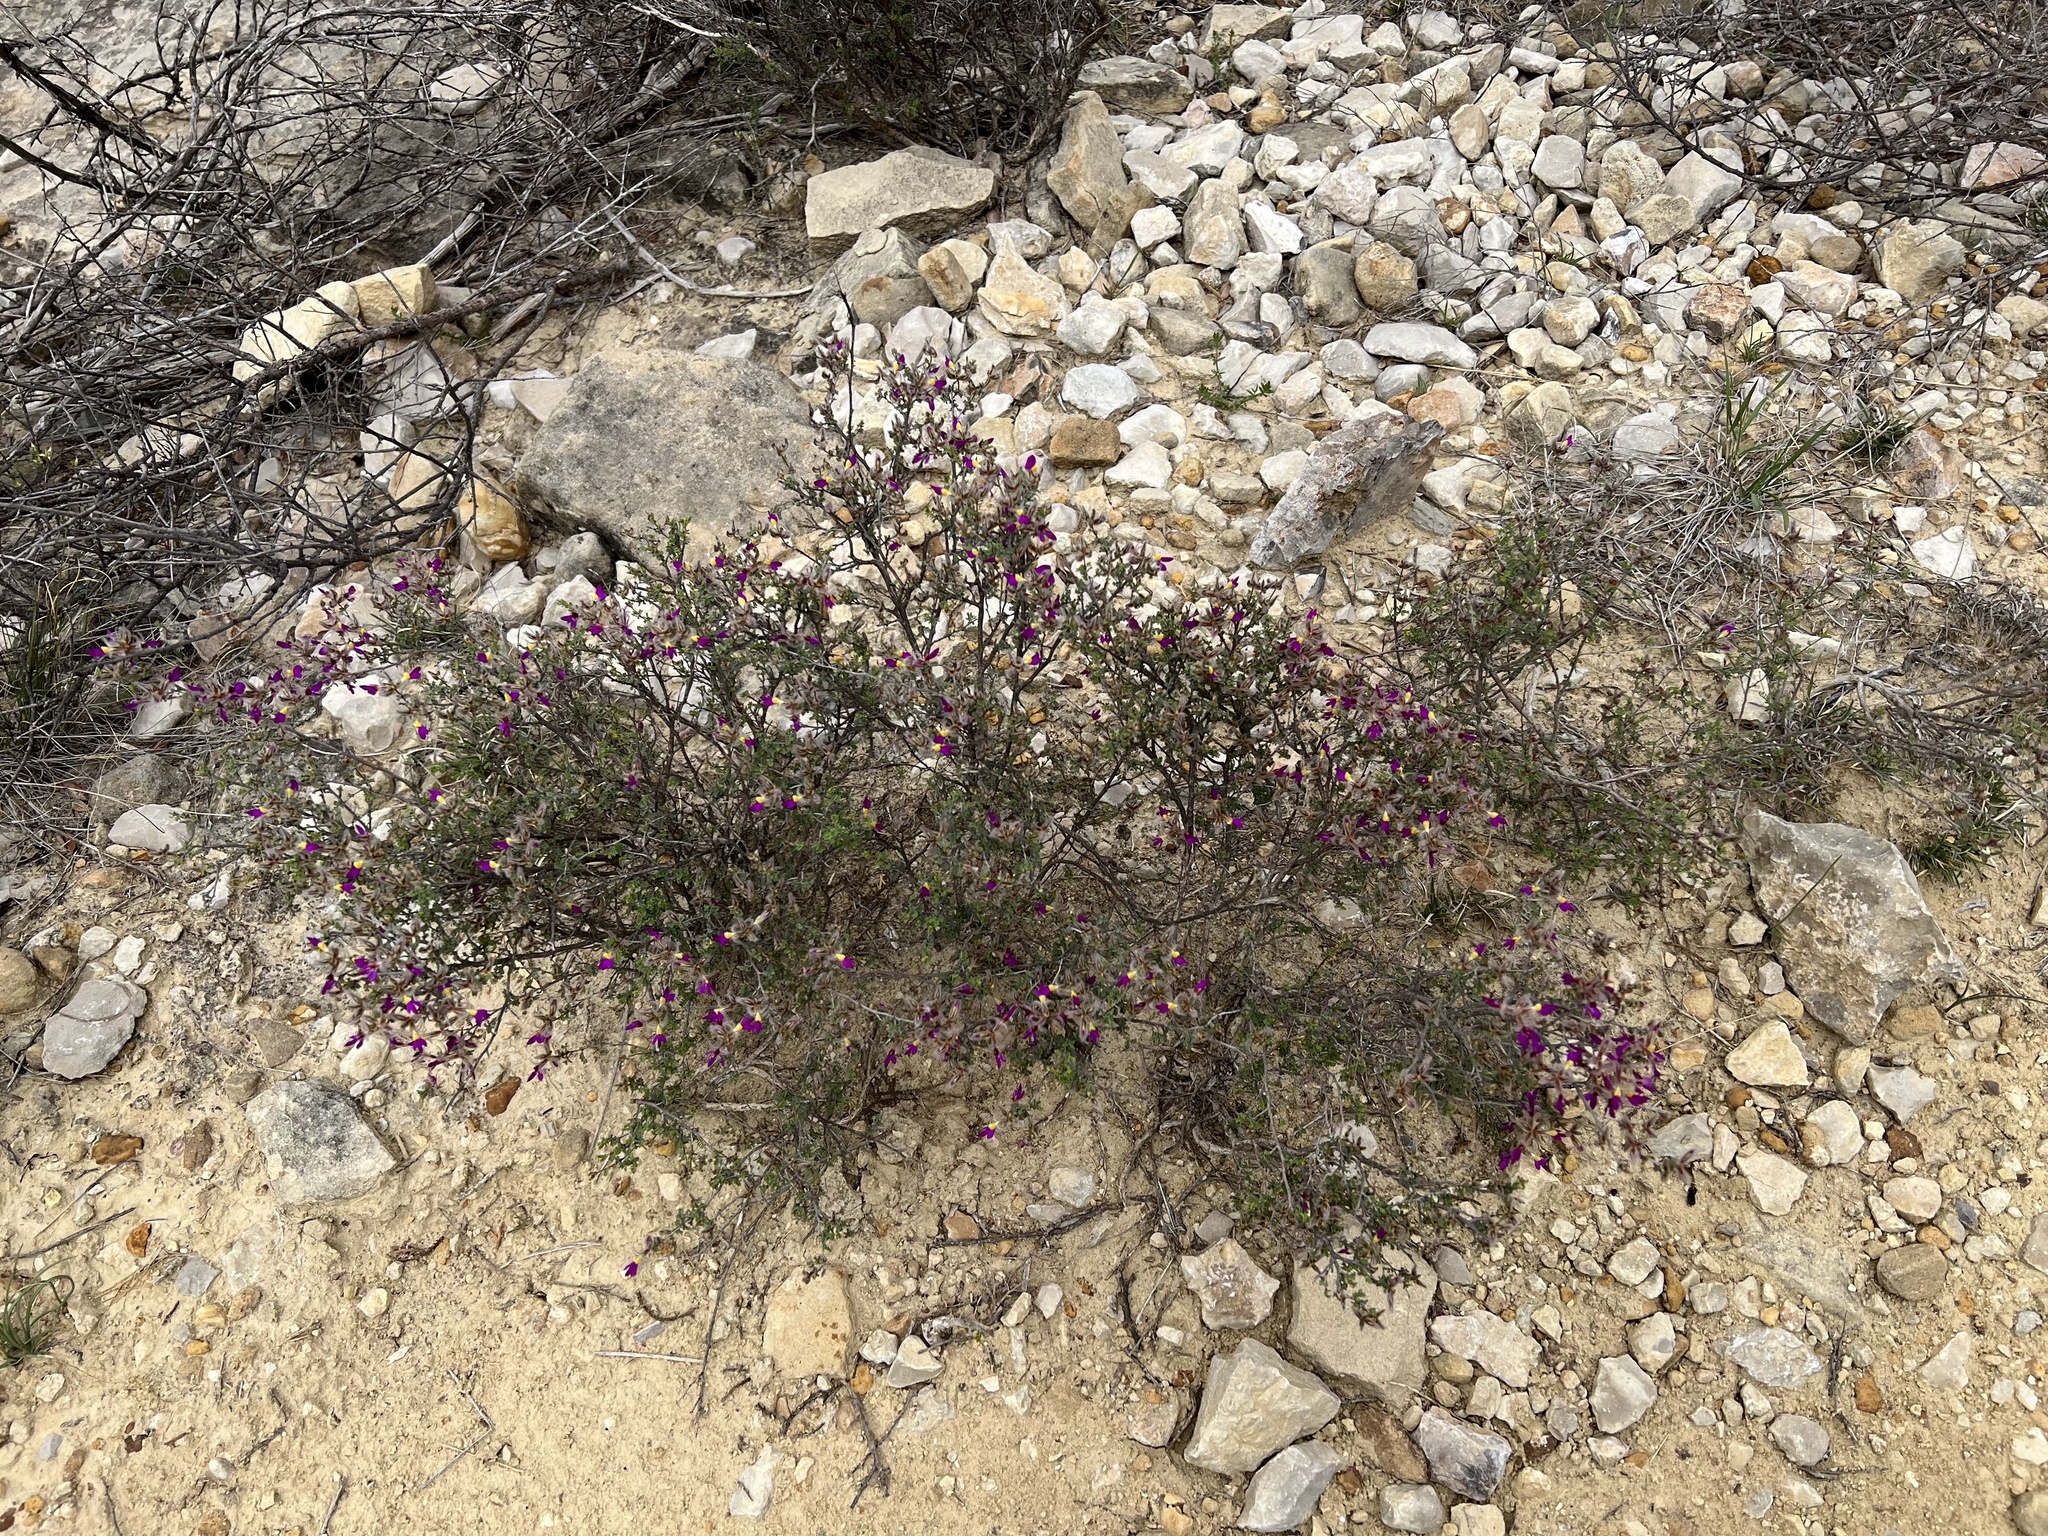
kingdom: Plantae
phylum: Tracheophyta
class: Magnoliopsida
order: Fabales
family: Fabaceae
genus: Dalea
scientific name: Dalea formosa
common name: Feather-plume dalea
